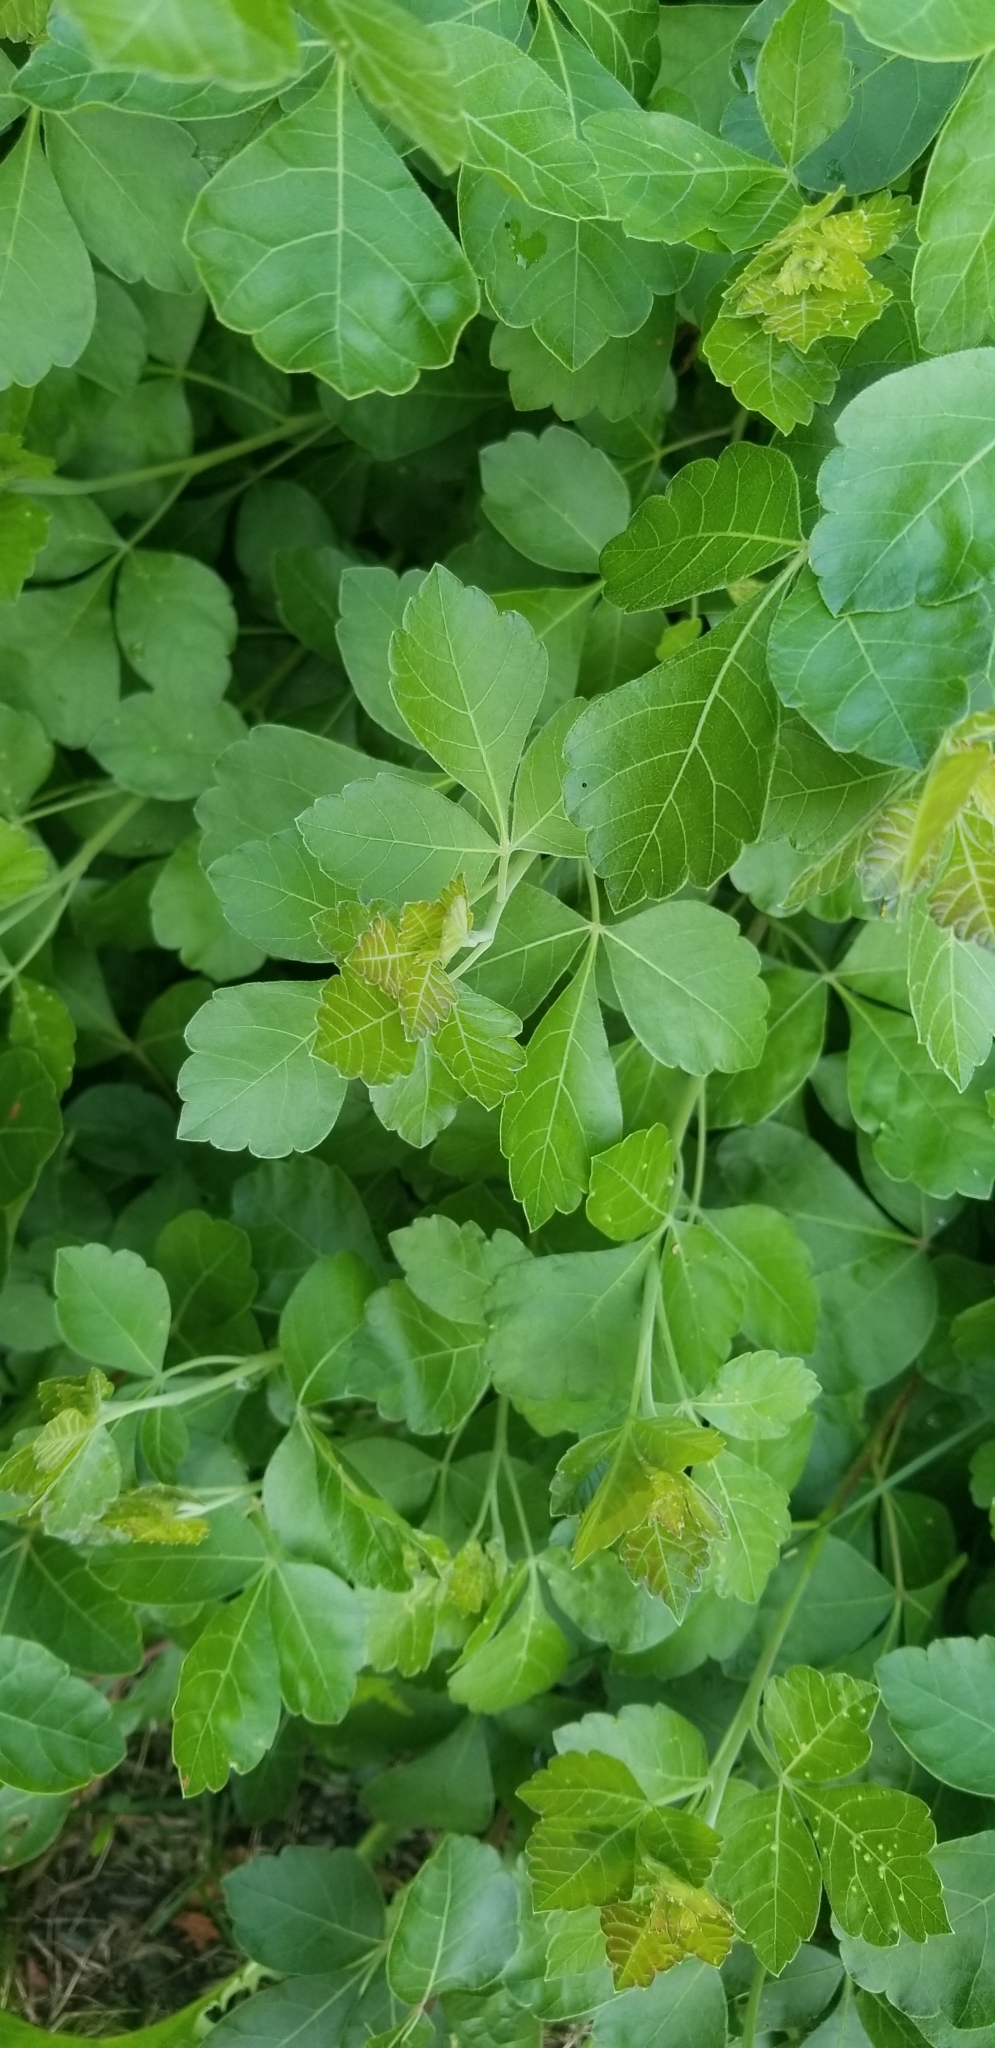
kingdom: Plantae
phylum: Tracheophyta
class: Magnoliopsida
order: Sapindales
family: Anacardiaceae
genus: Rhus
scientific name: Rhus aromatica
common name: Aromatic sumac
